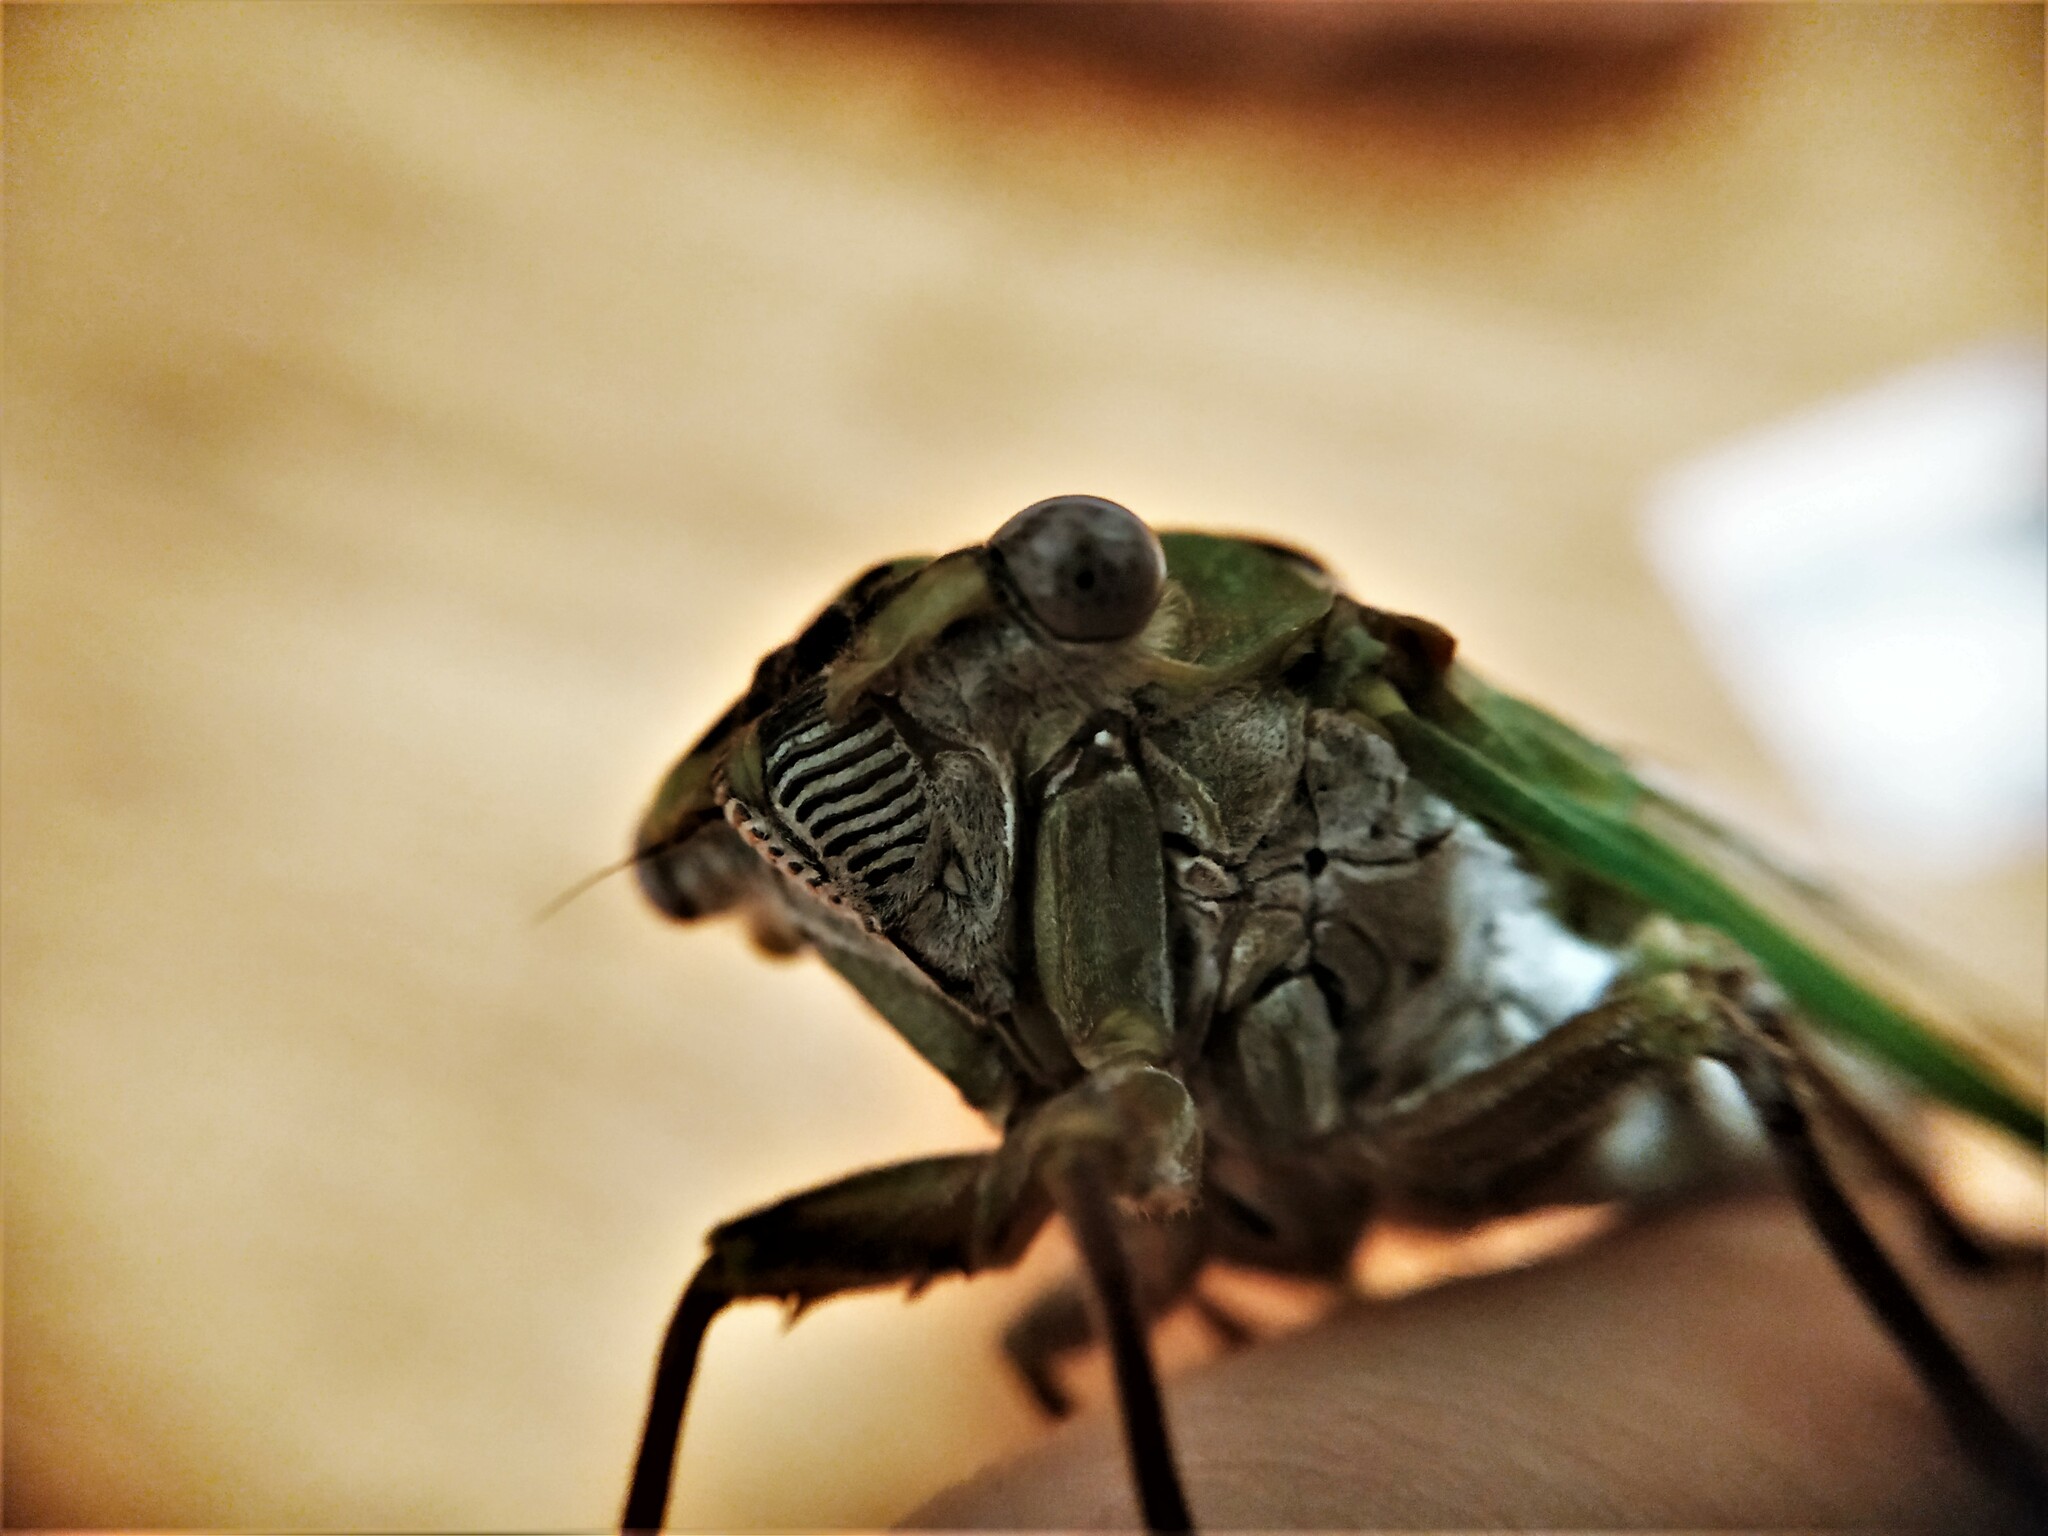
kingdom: Animalia
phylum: Arthropoda
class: Insecta
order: Hemiptera
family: Cicadidae
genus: Megatibicen
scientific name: Megatibicen pronotalis
